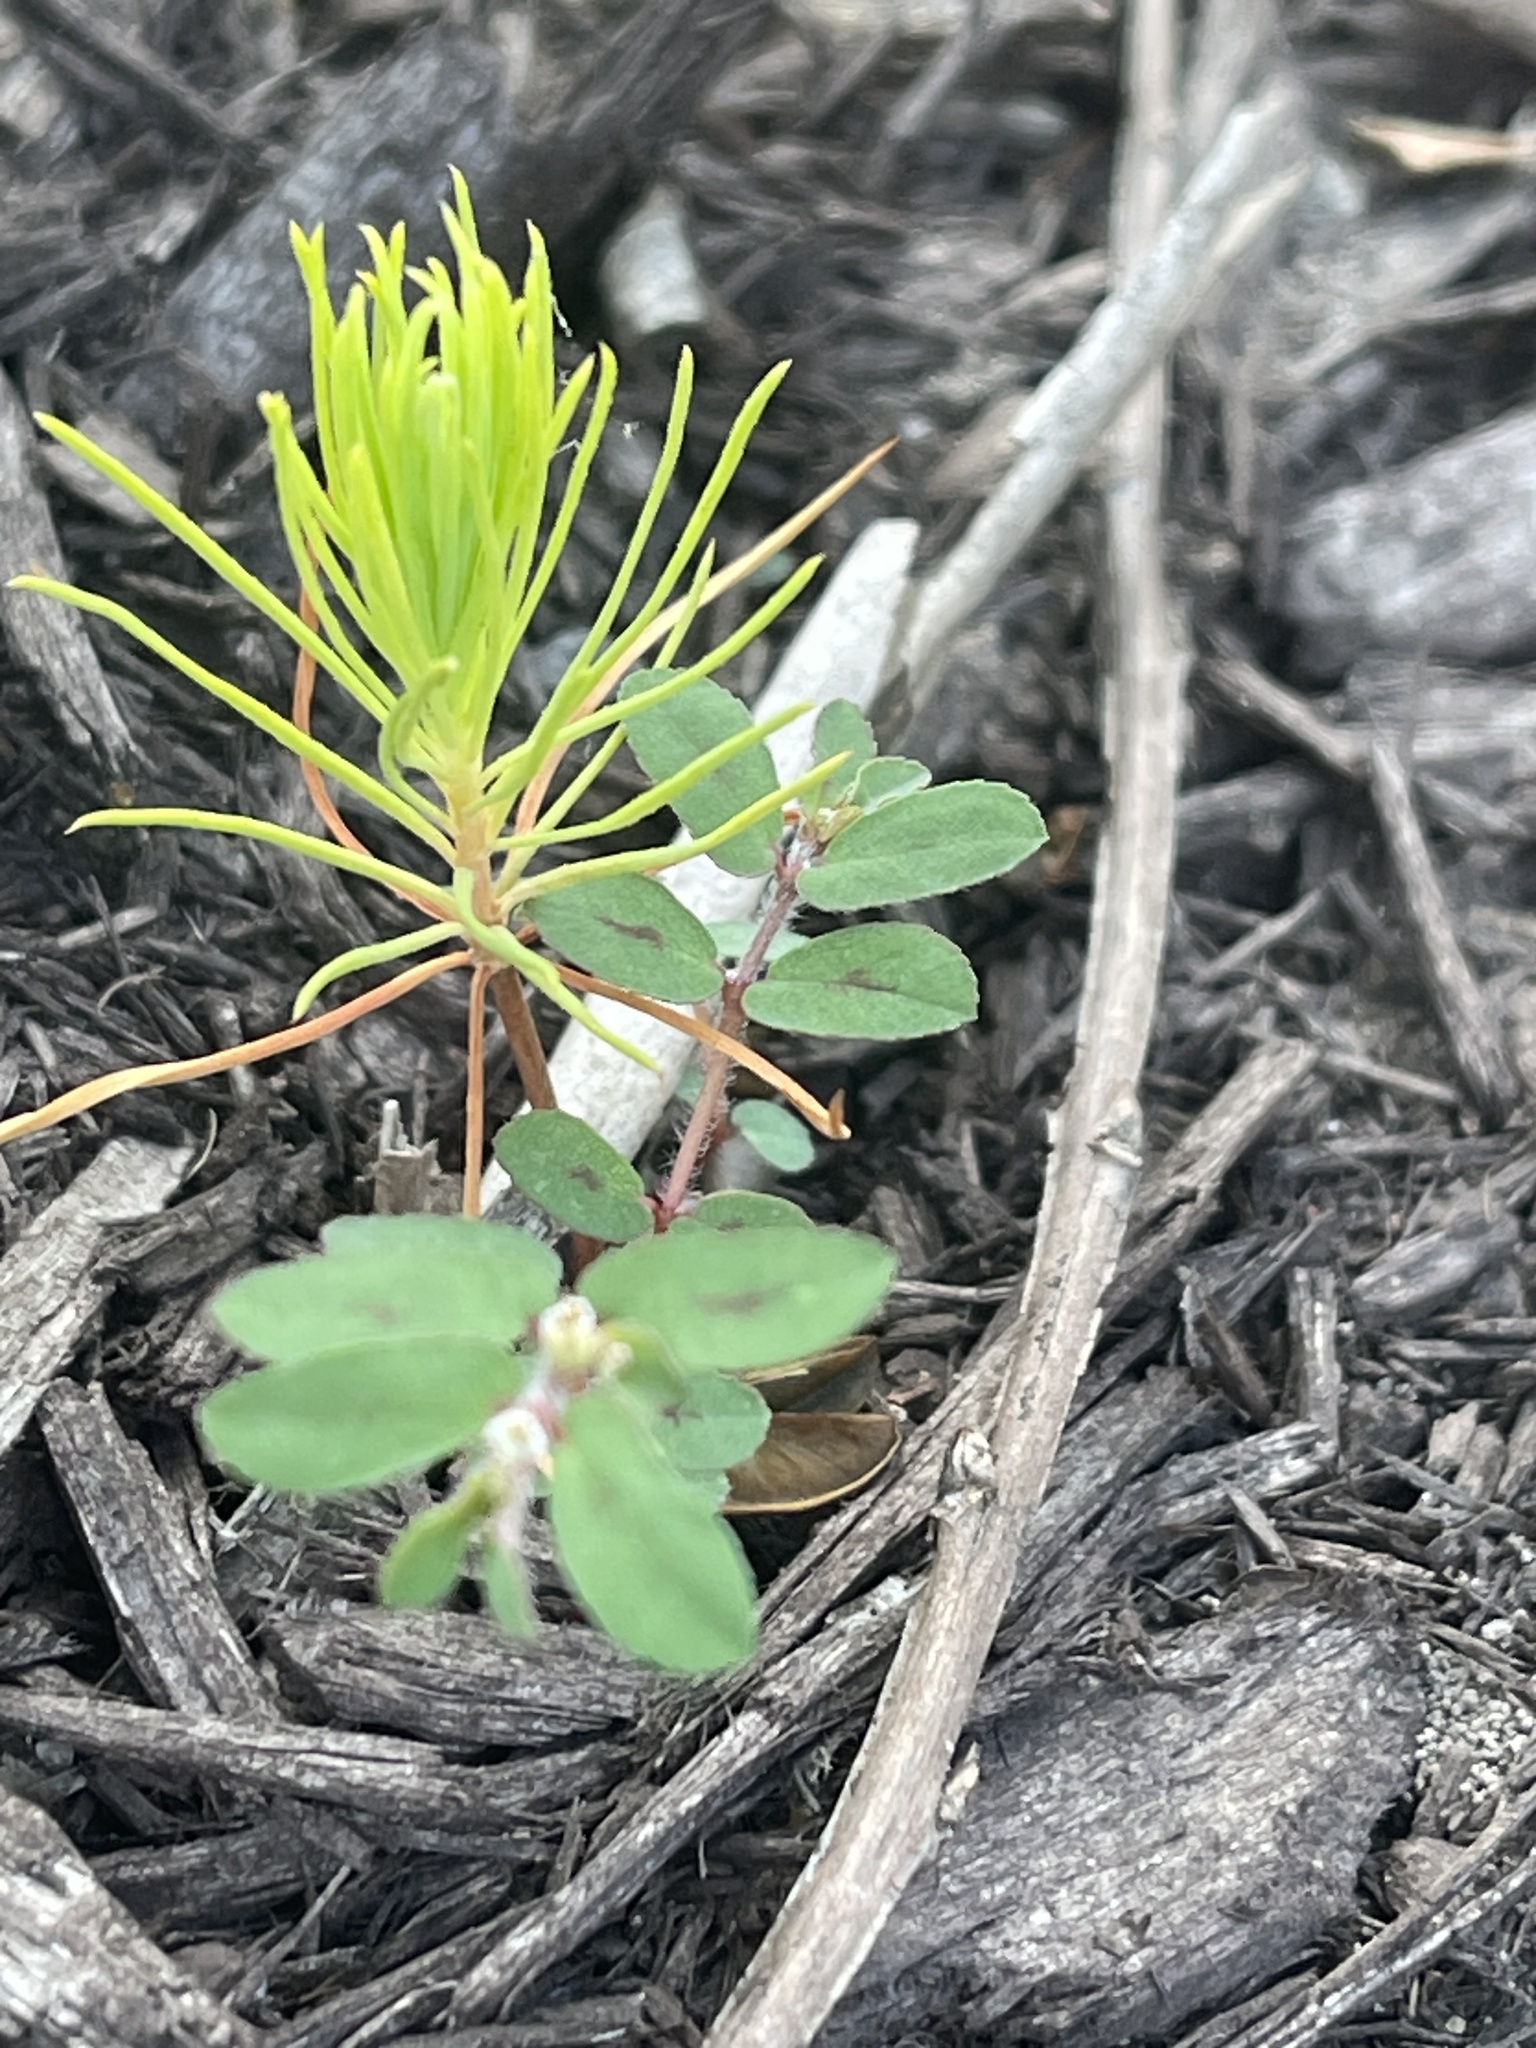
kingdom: Plantae
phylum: Tracheophyta
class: Magnoliopsida
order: Malpighiales
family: Euphorbiaceae
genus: Euphorbia
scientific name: Euphorbia maculata
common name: Spotted spurge
